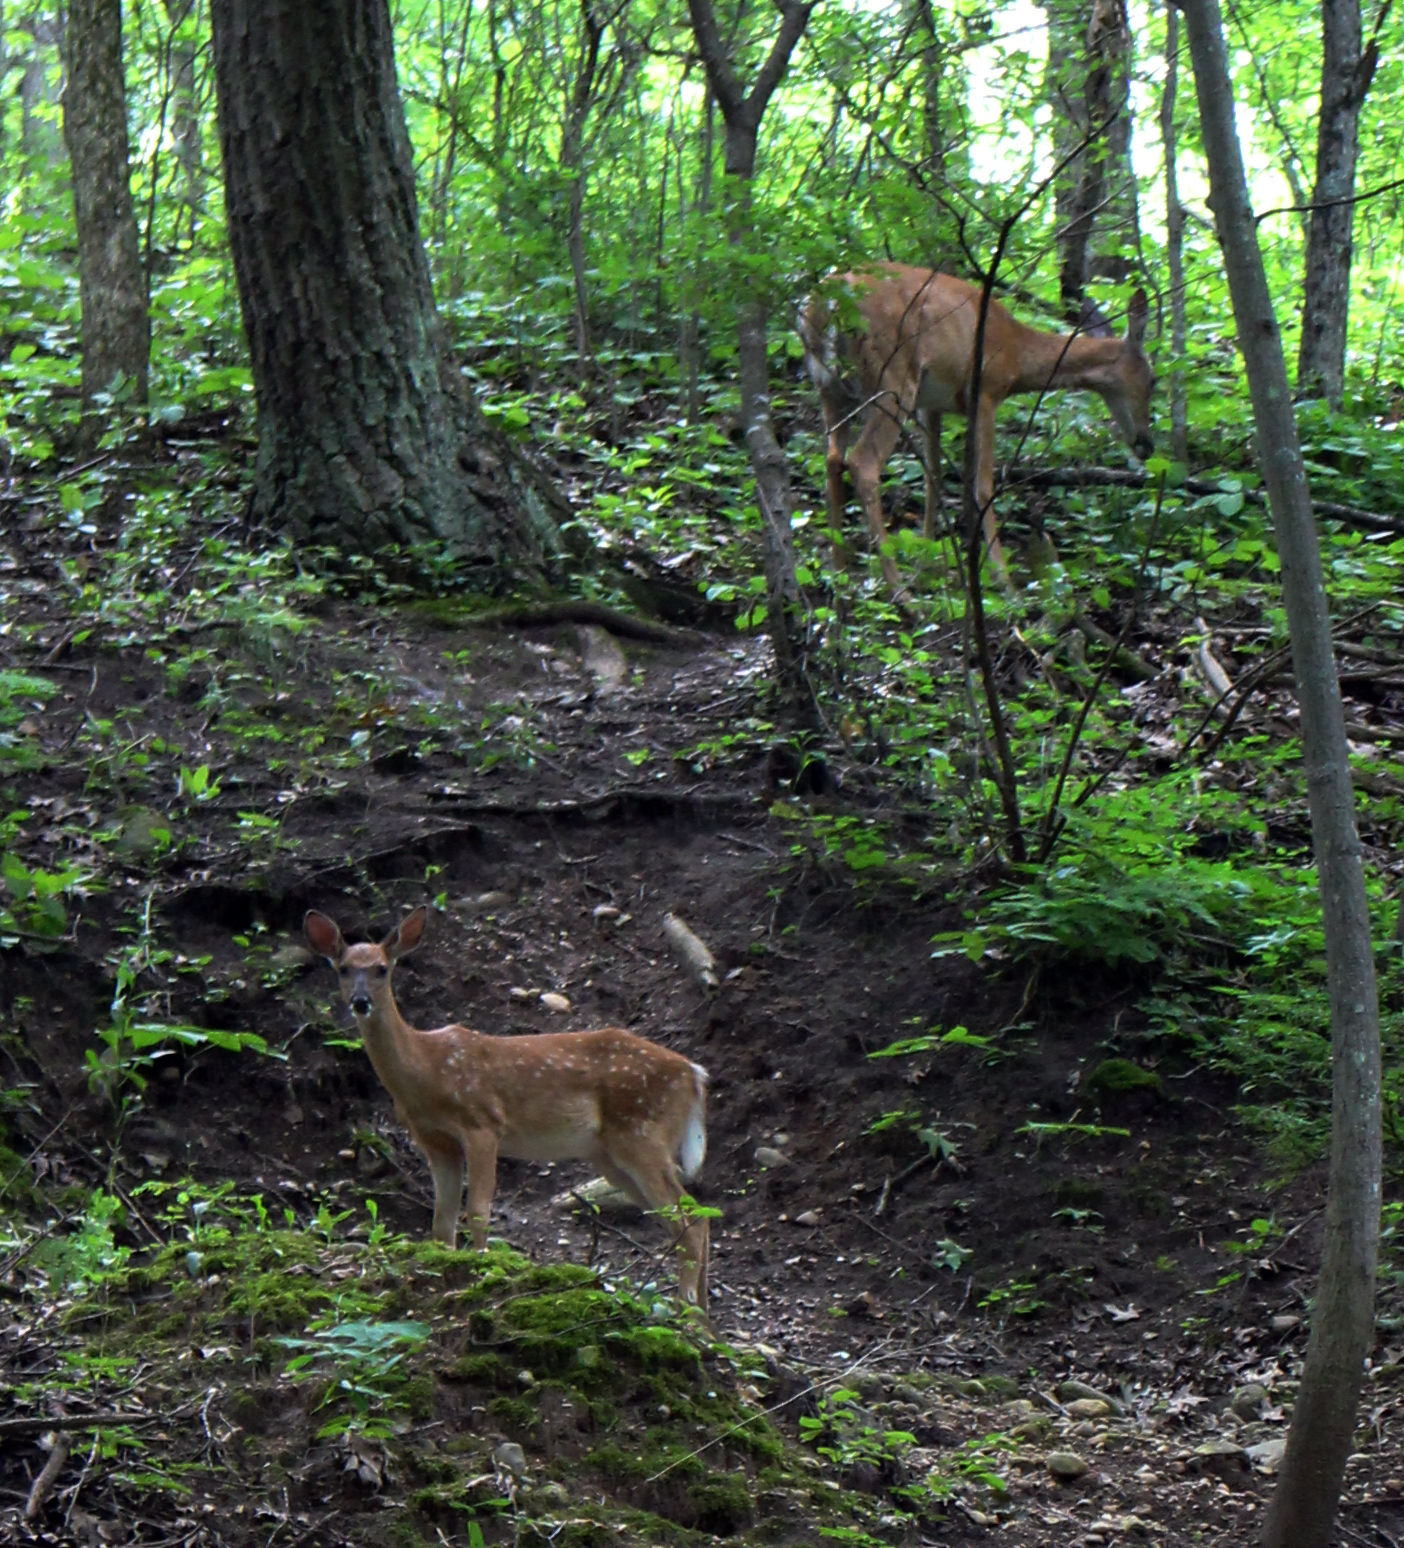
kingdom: Animalia
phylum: Chordata
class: Mammalia
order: Artiodactyla
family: Cervidae
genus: Odocoileus
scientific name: Odocoileus virginianus
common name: White-tailed deer
